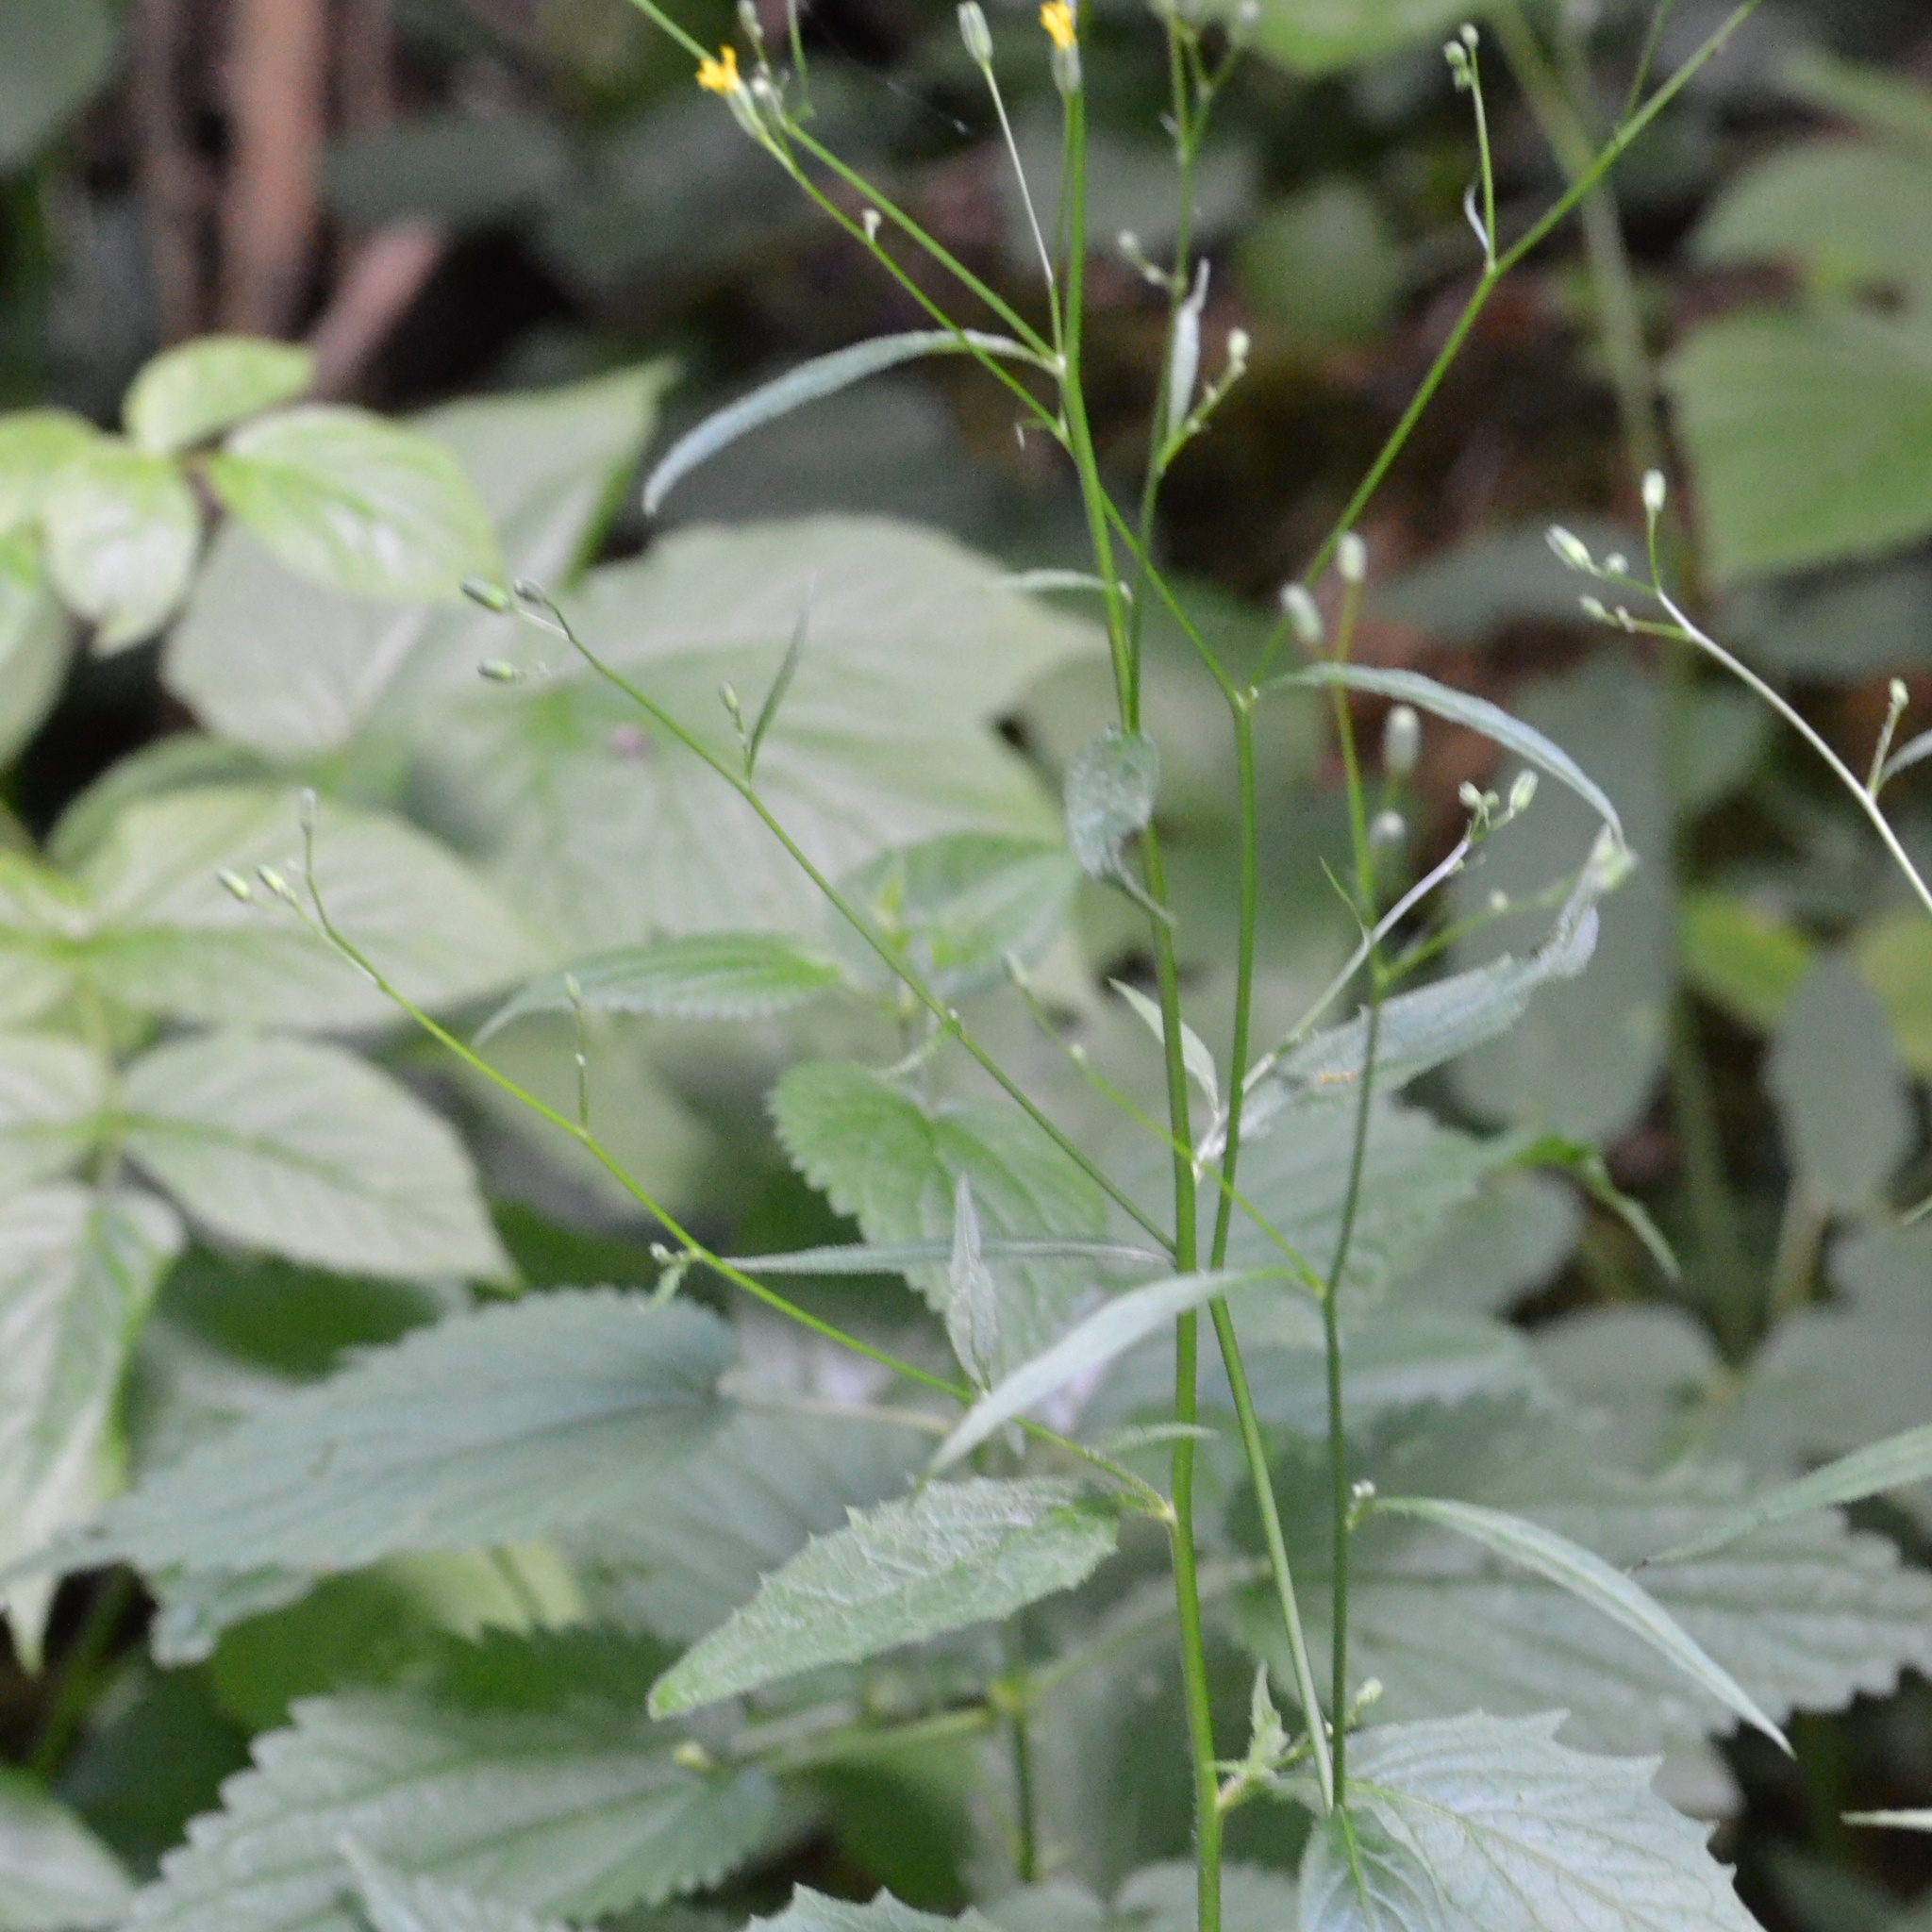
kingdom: Plantae
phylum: Tracheophyta
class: Magnoliopsida
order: Asterales
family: Asteraceae
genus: Lapsana
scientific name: Lapsana communis
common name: Nipplewort
